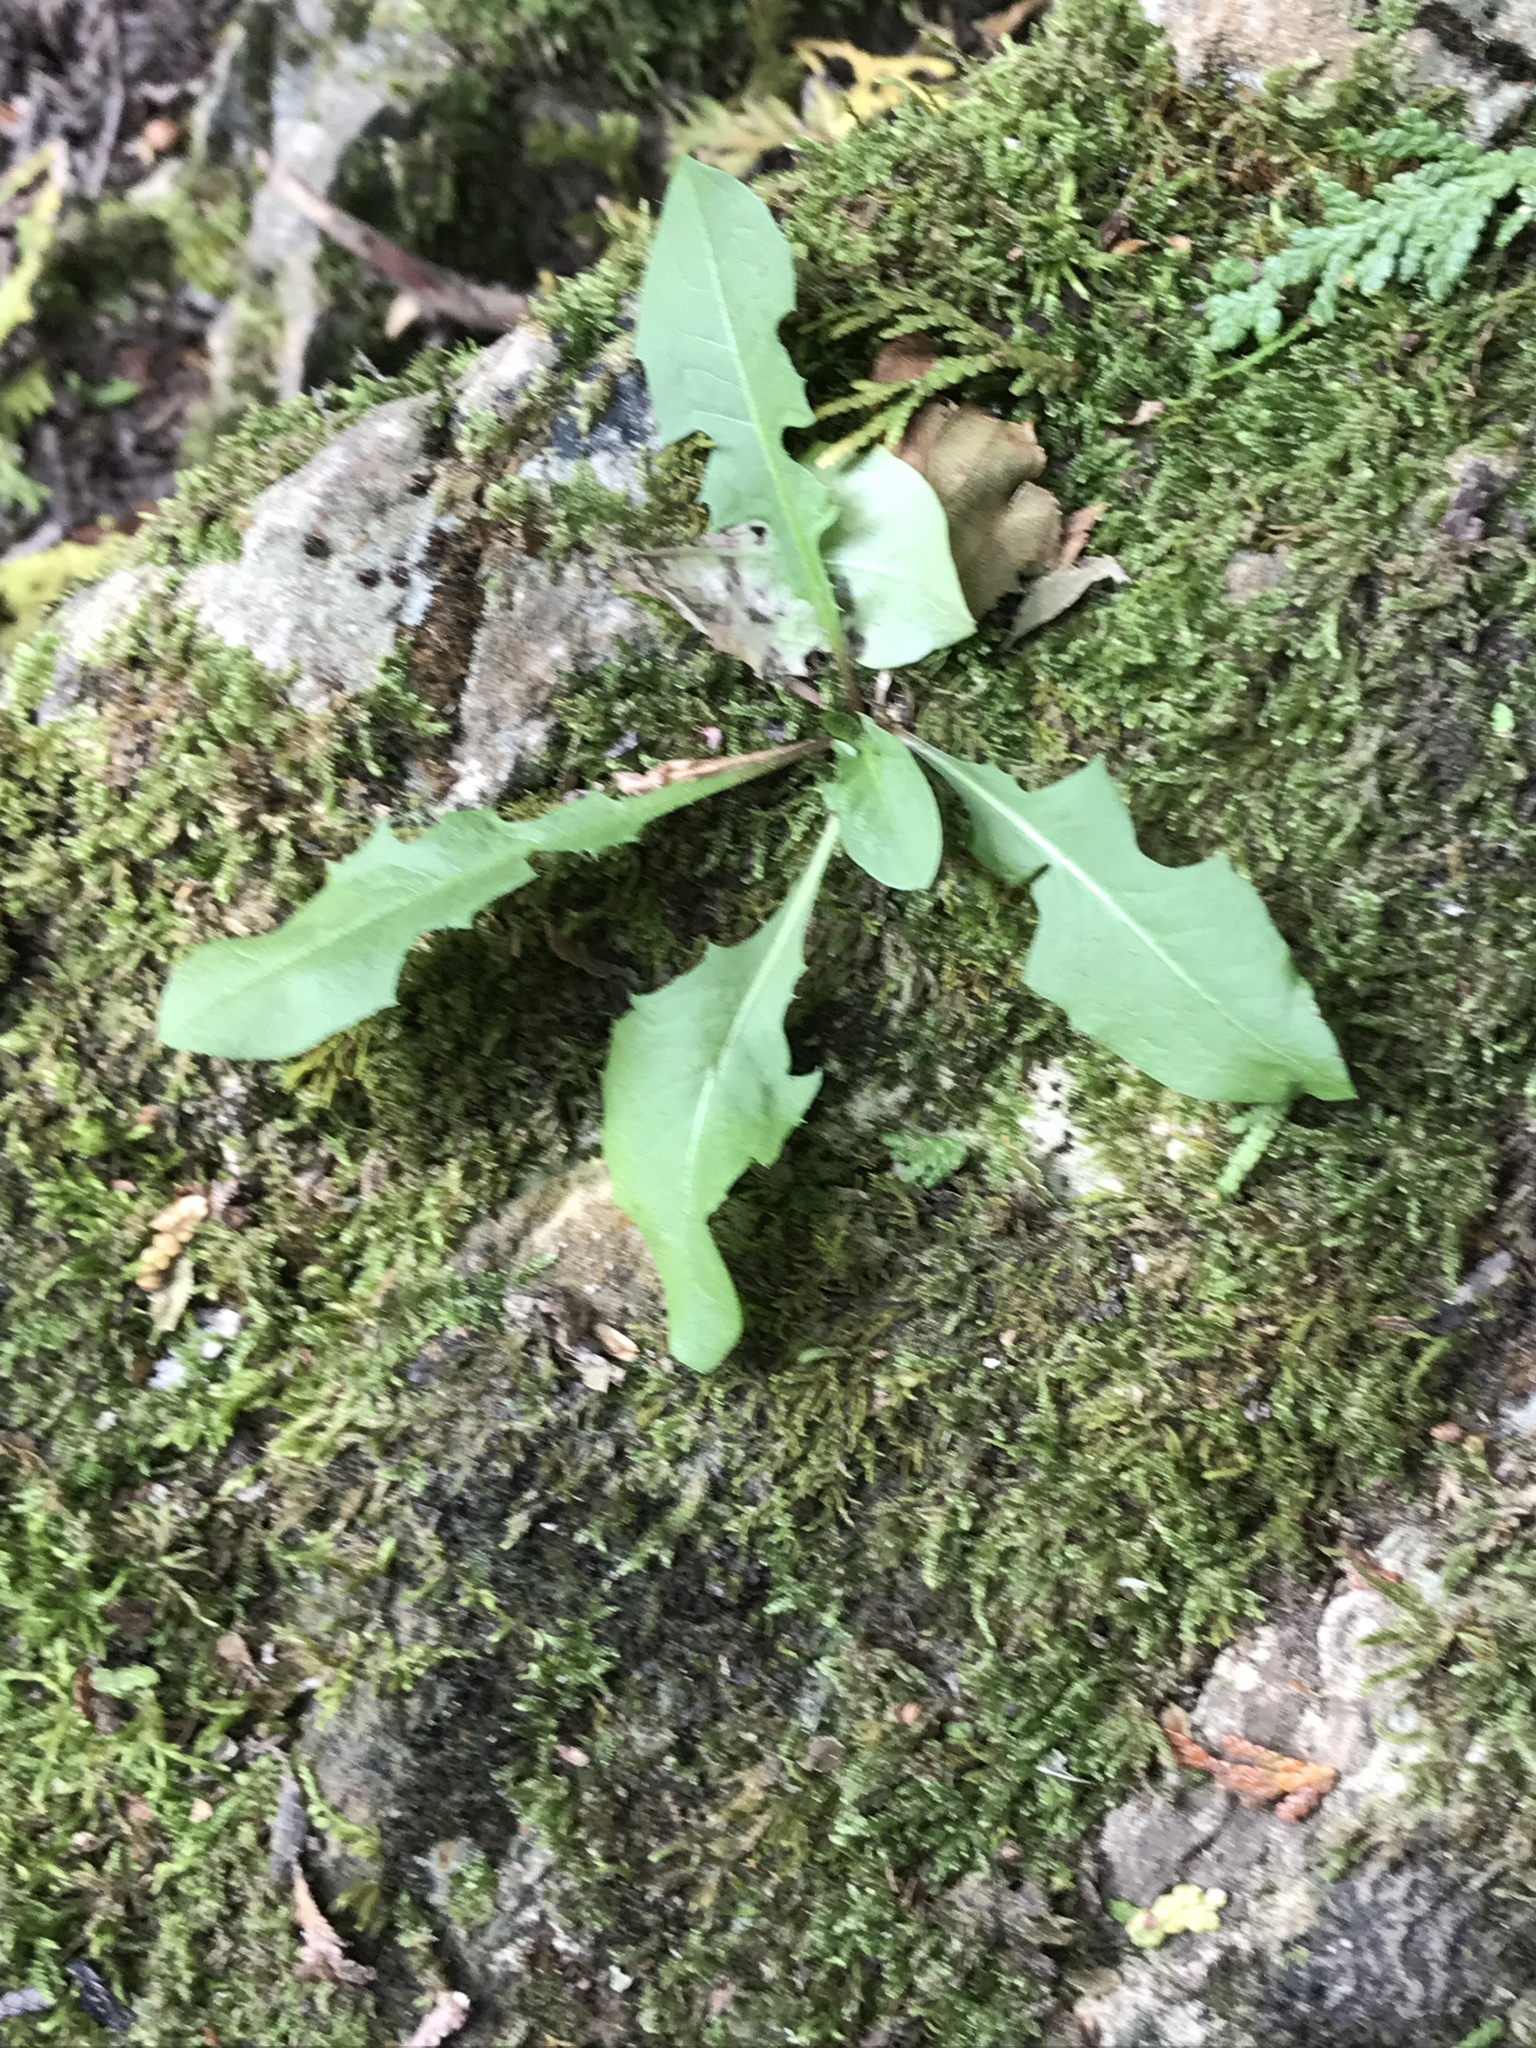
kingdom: Plantae
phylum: Tracheophyta
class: Magnoliopsida
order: Asterales
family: Asteraceae
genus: Taraxacum
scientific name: Taraxacum officinale
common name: Common dandelion
